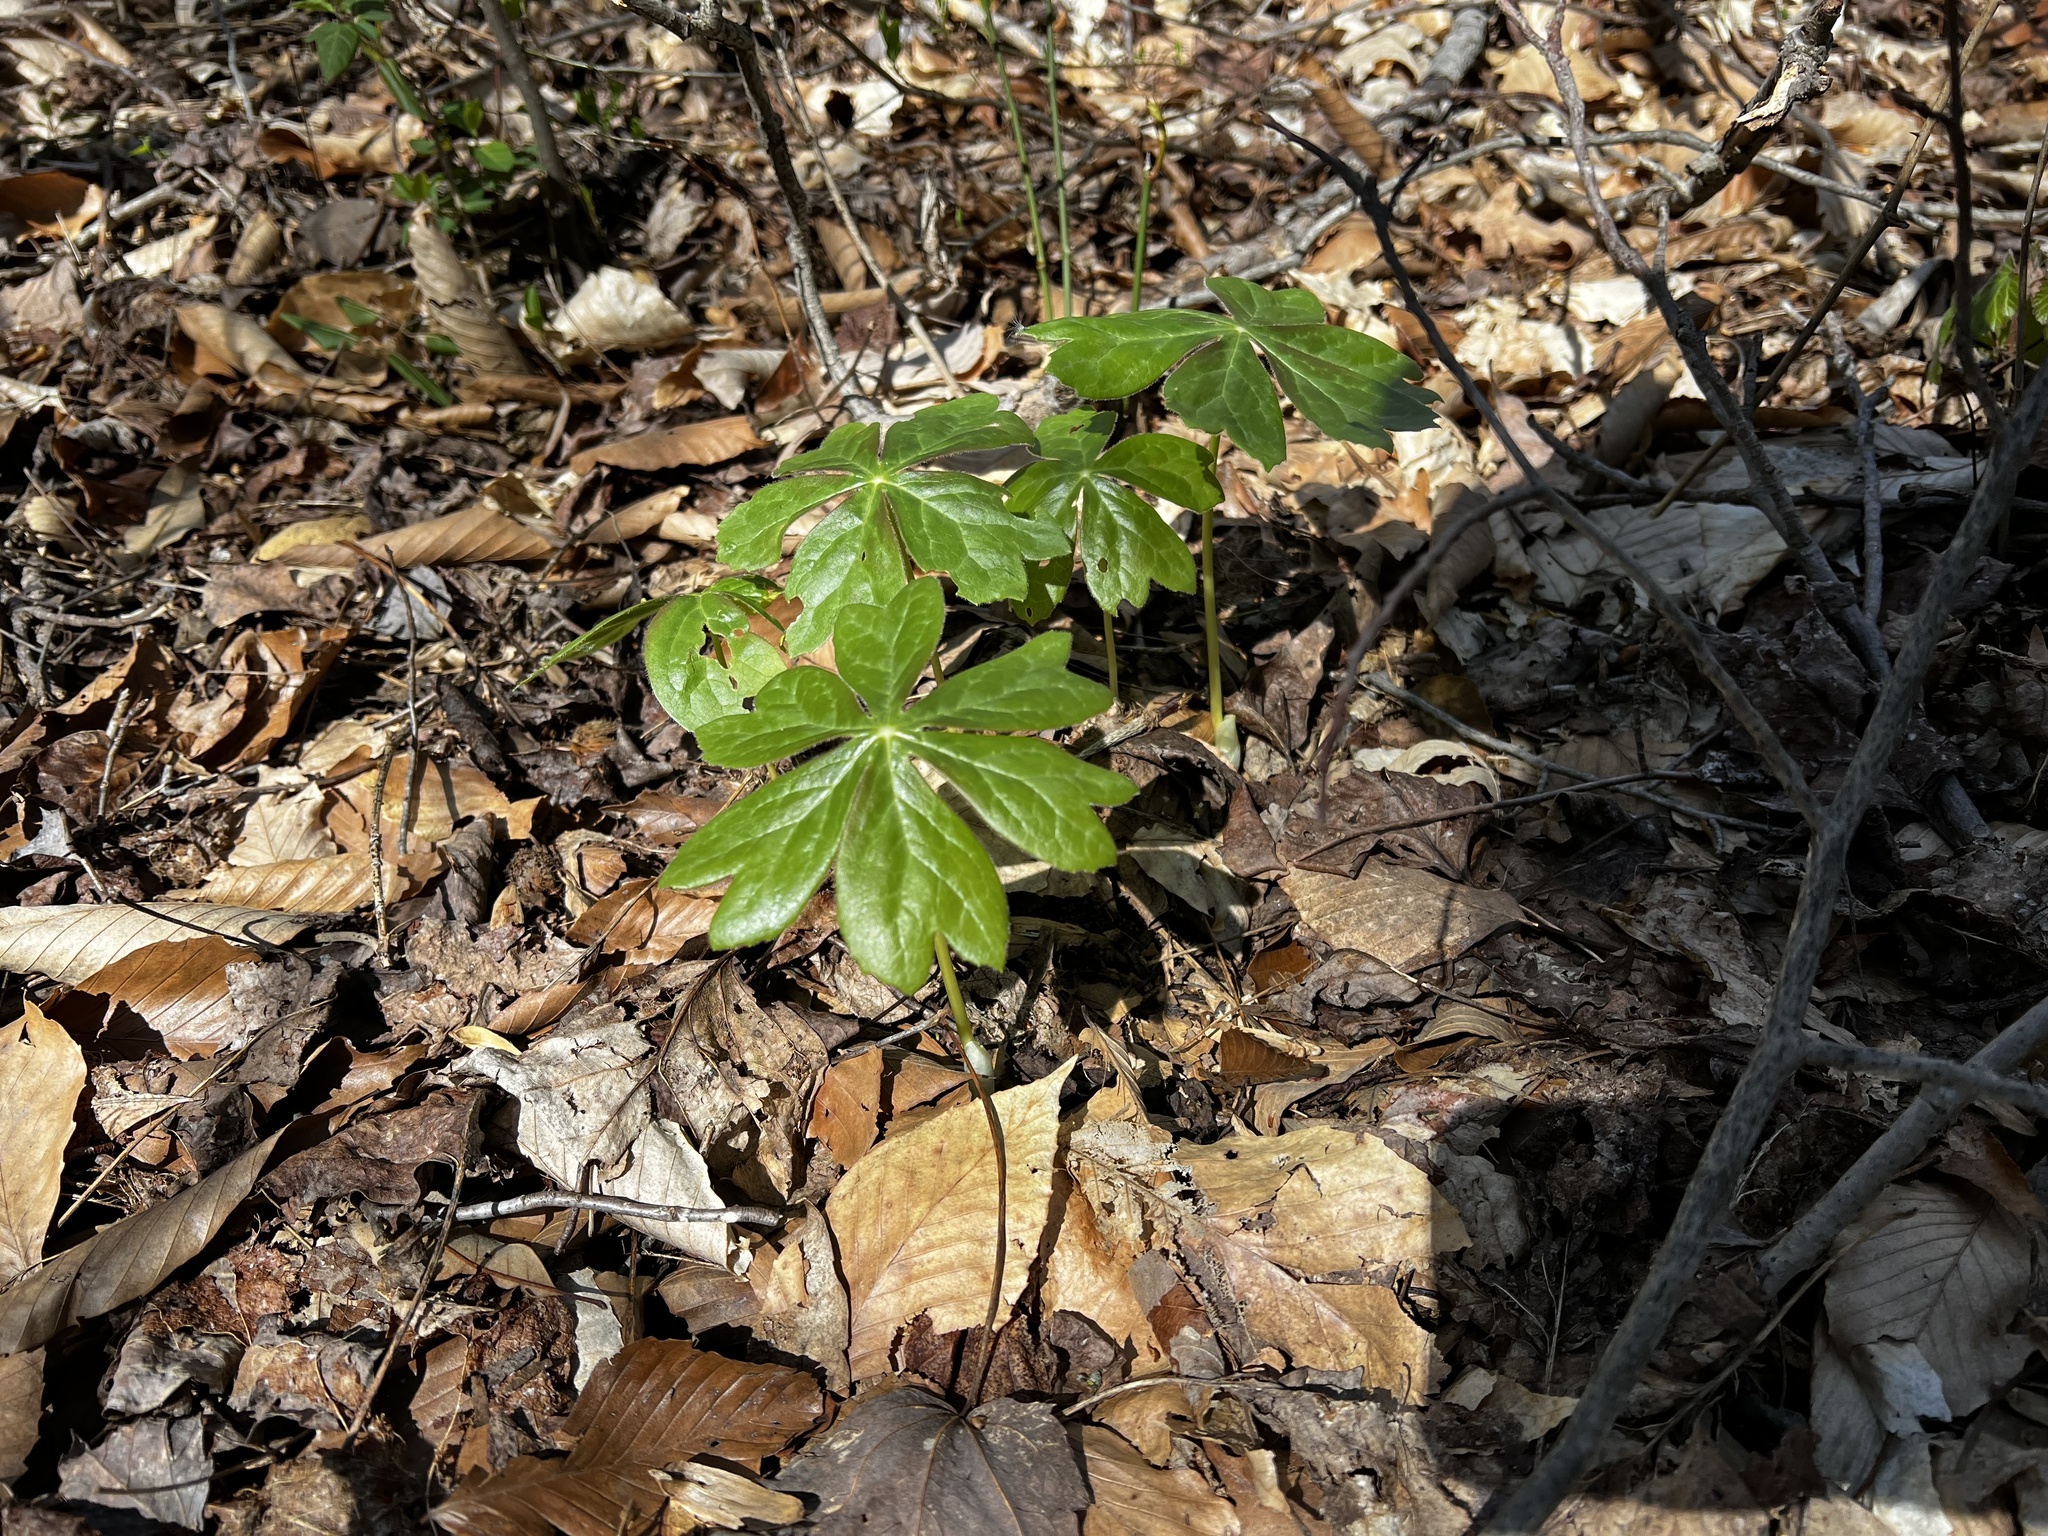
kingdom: Plantae
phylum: Tracheophyta
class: Magnoliopsida
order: Ranunculales
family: Berberidaceae
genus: Podophyllum
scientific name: Podophyllum peltatum
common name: Wild mandrake
